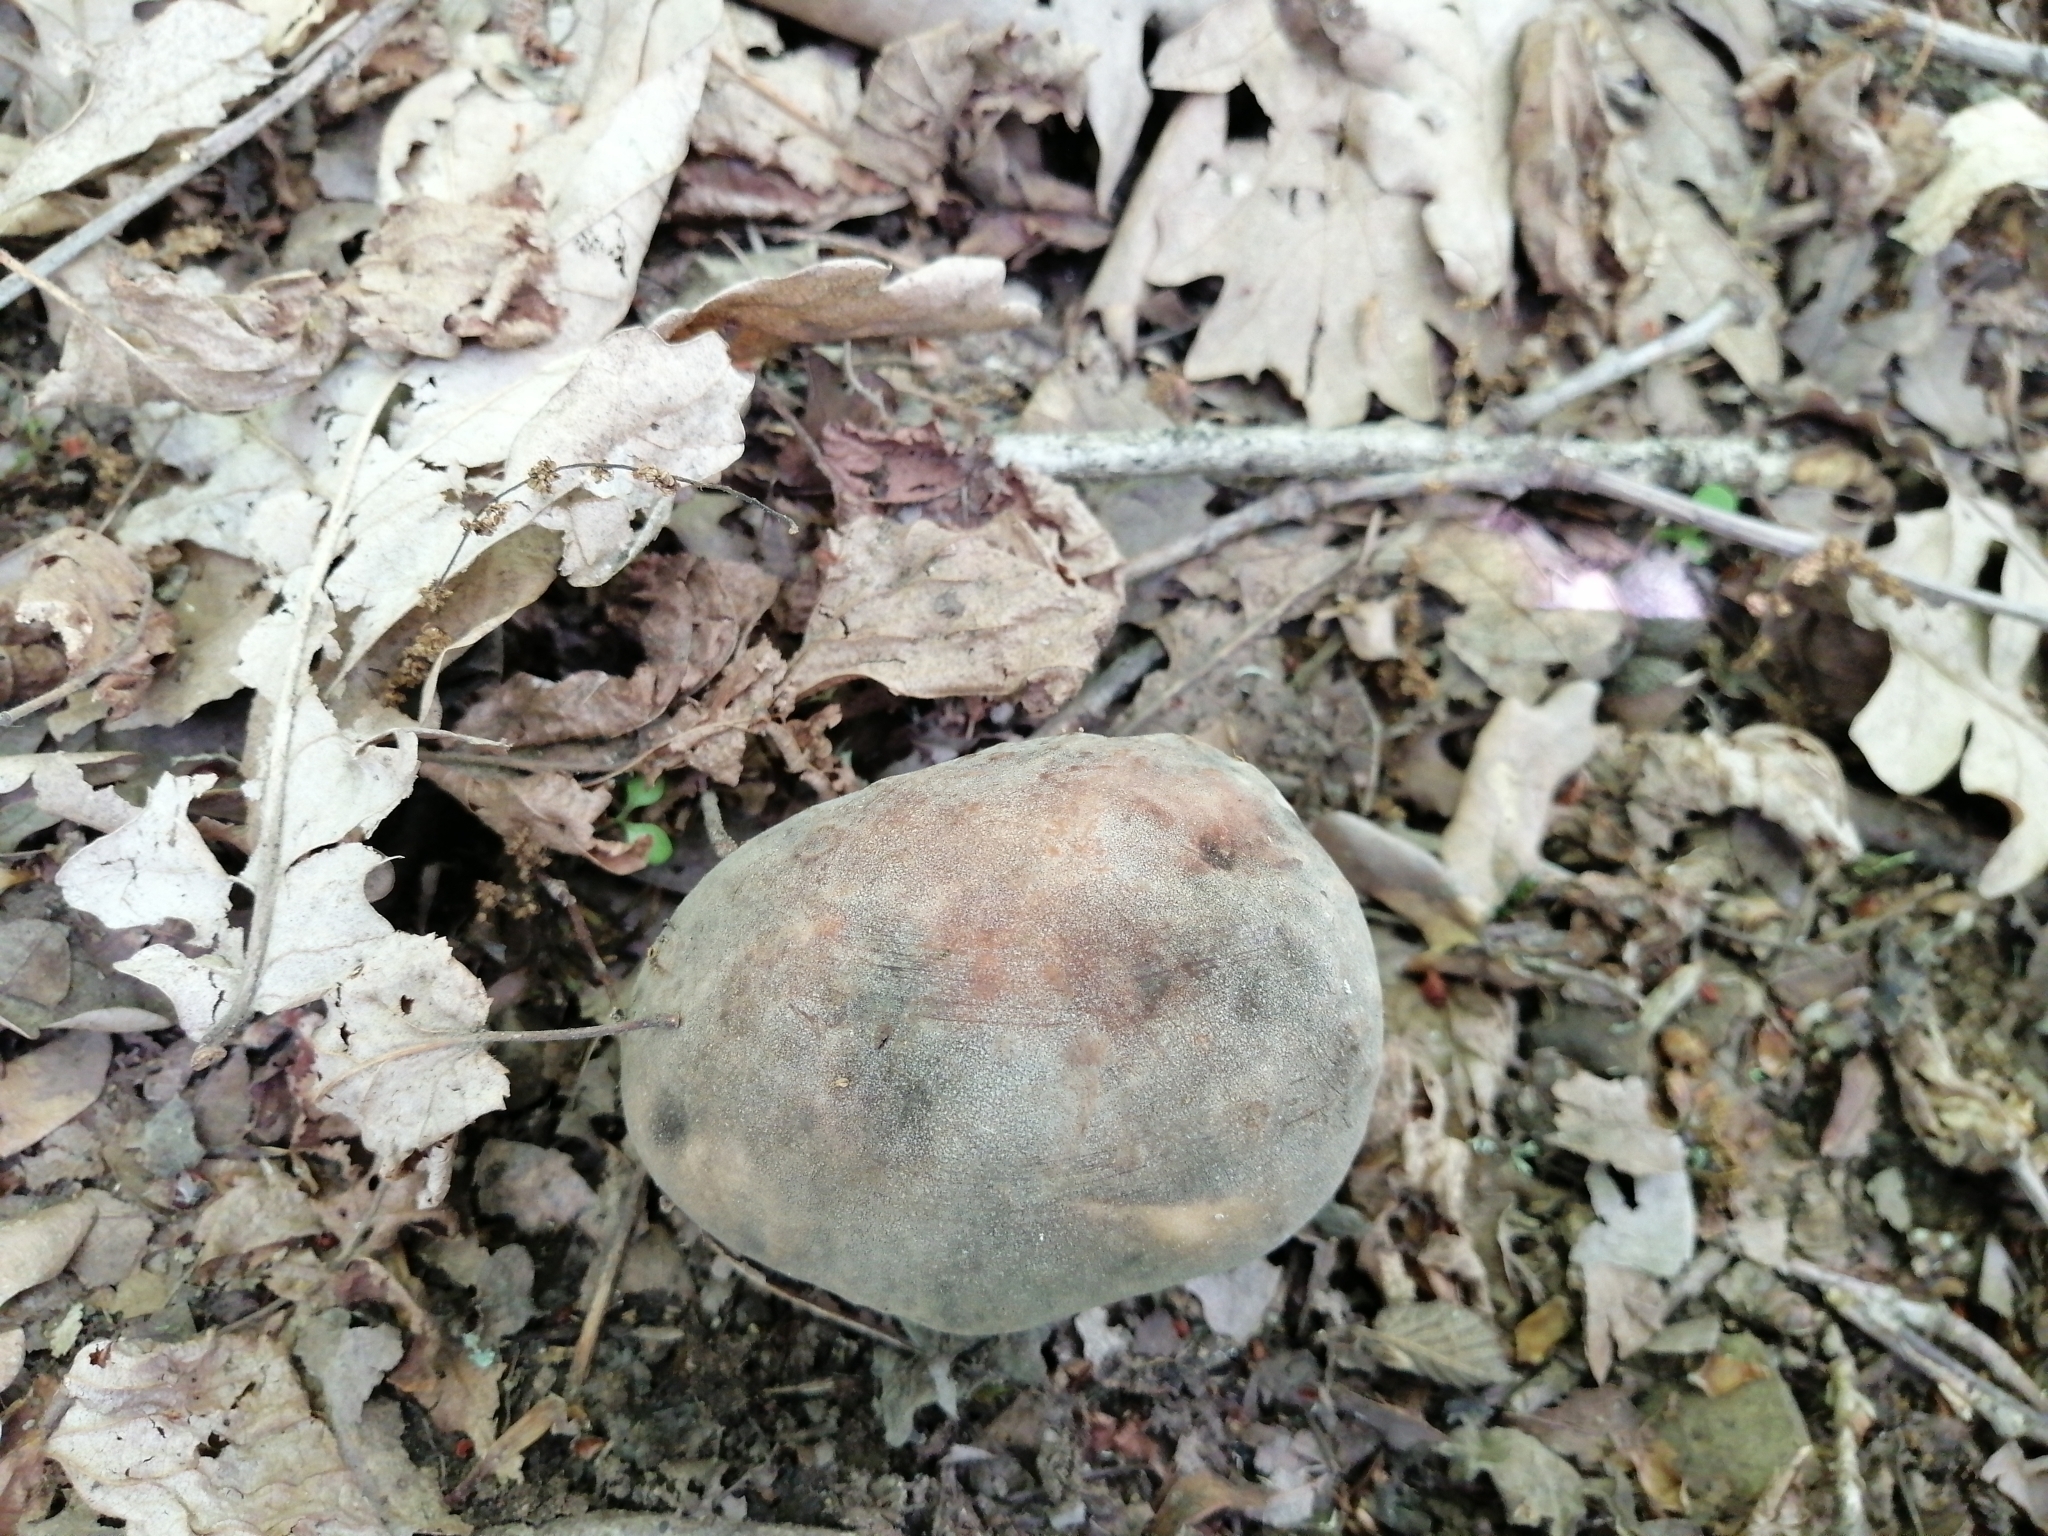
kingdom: Fungi
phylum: Basidiomycota
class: Agaricomycetes
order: Boletales
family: Boletaceae
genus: Boletus
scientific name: Boletus aereus
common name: Bronze bolete
